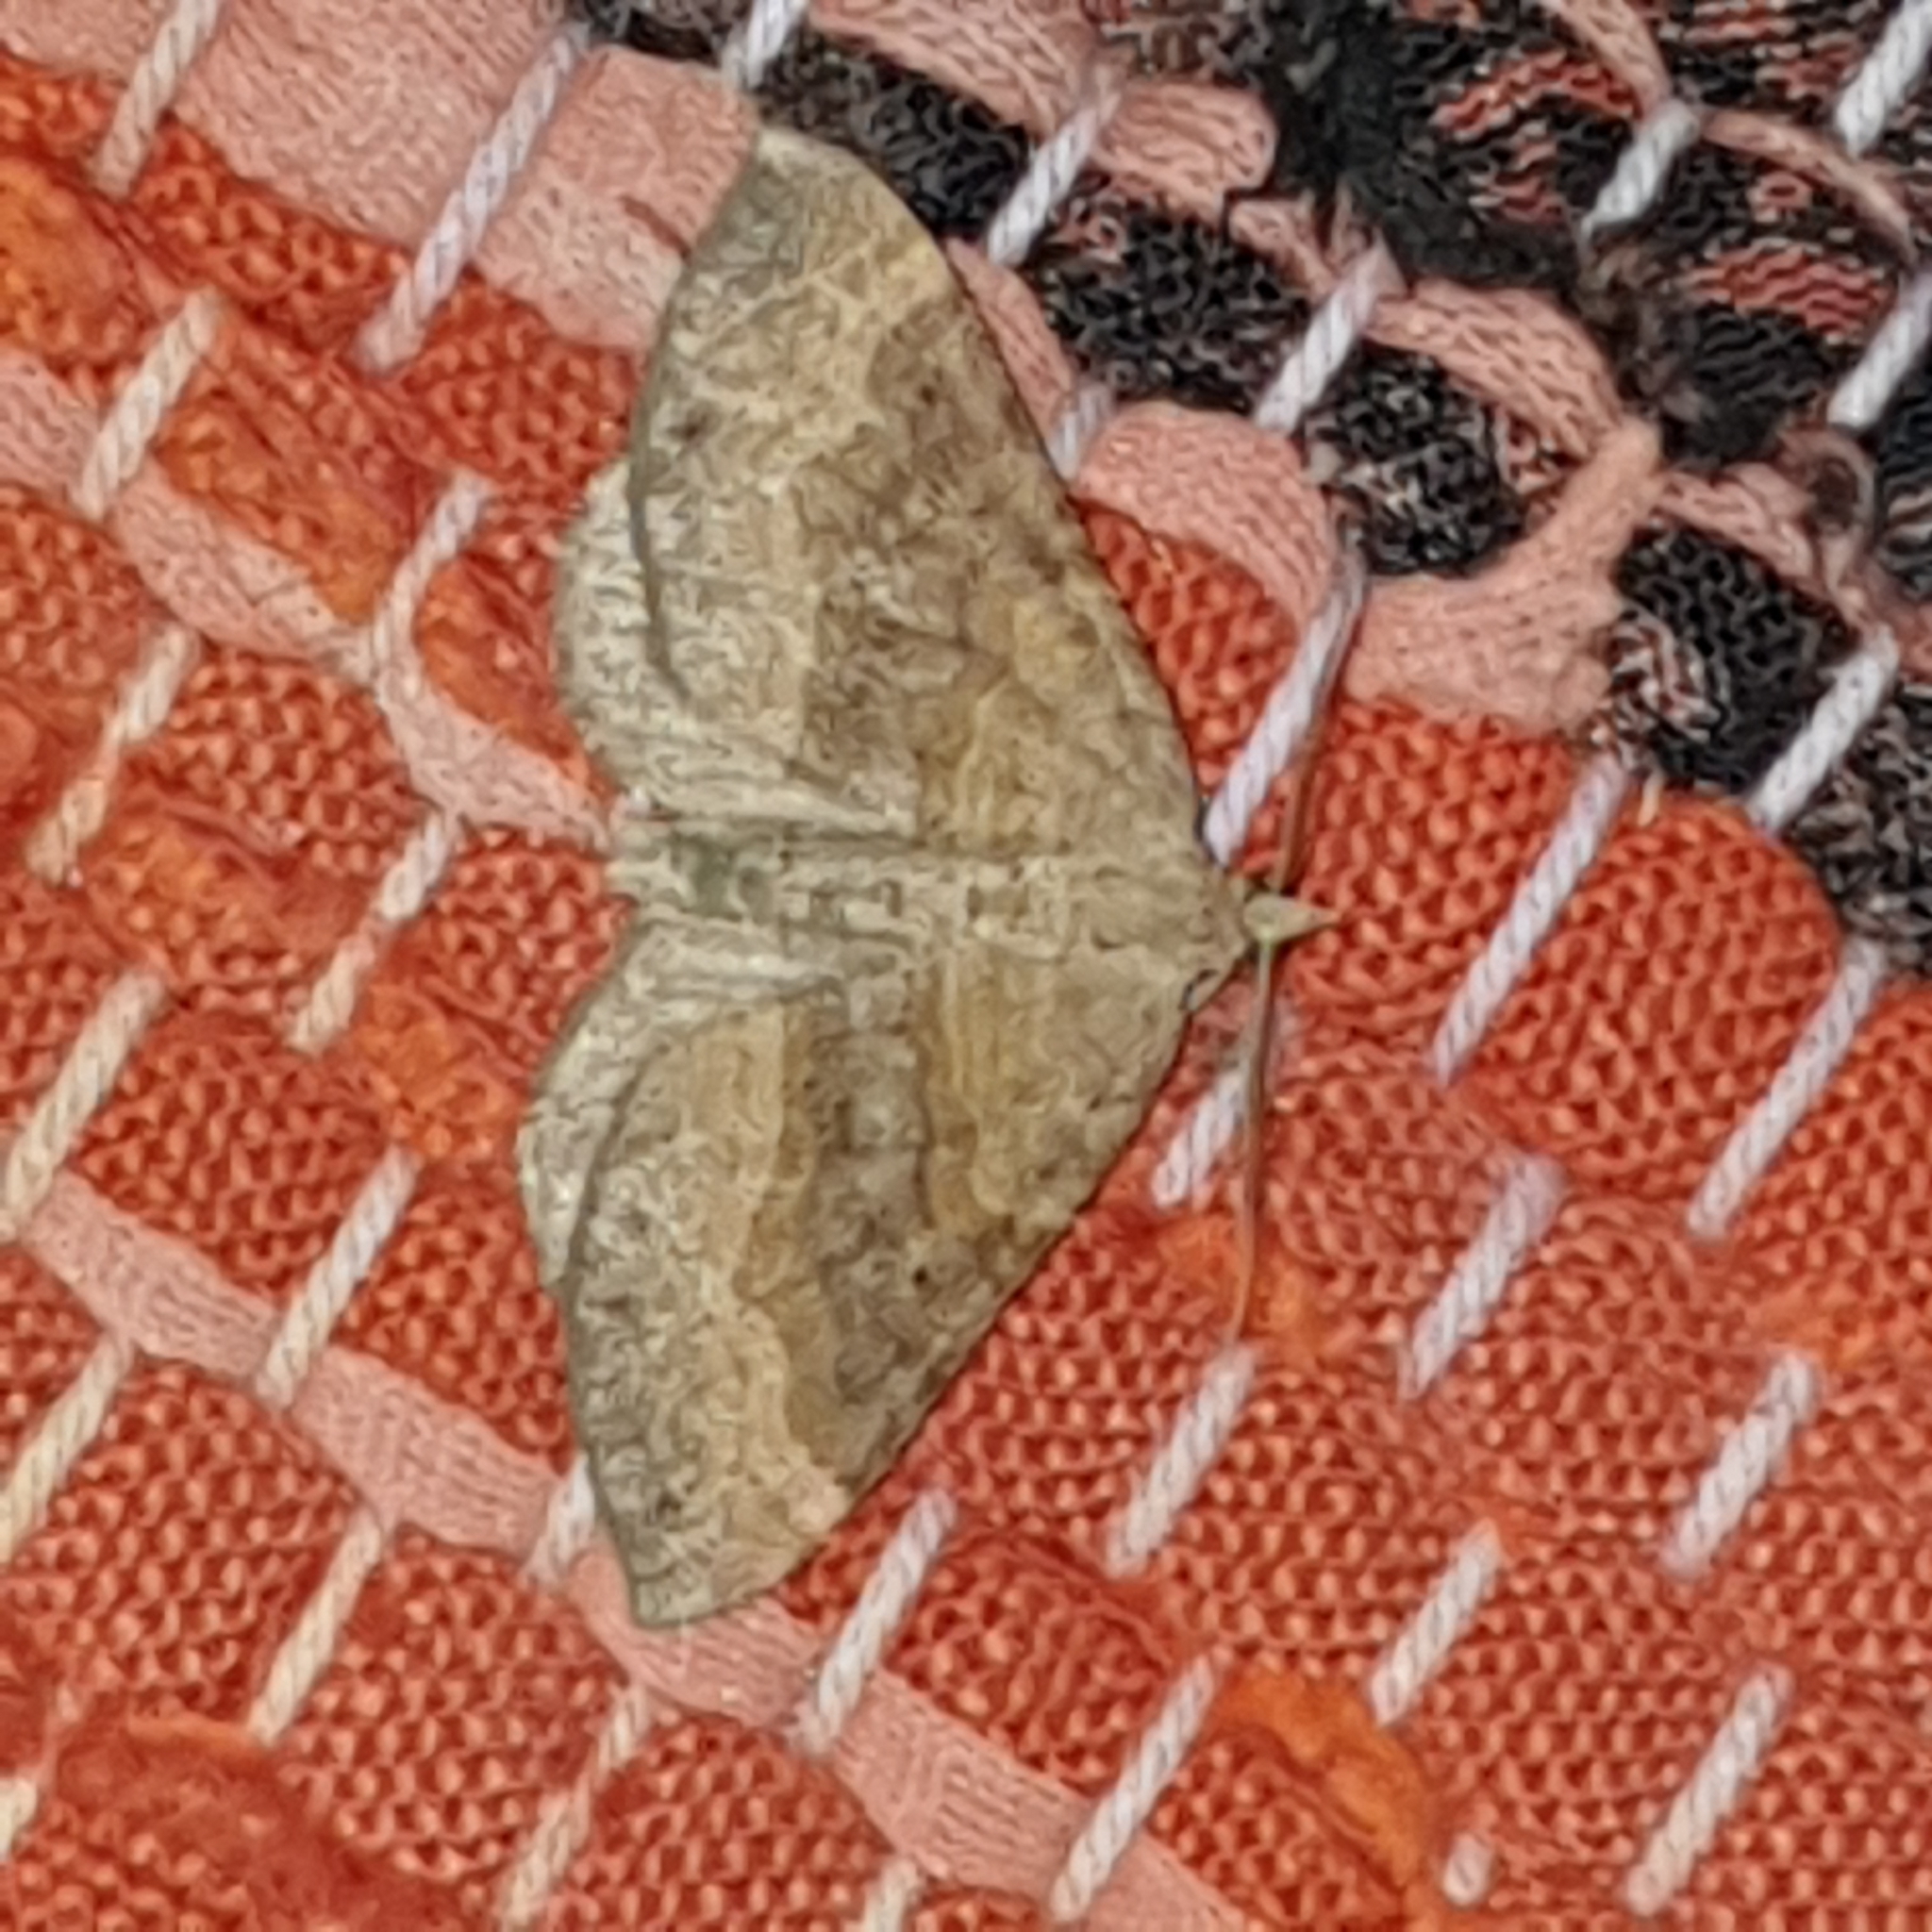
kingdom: Animalia
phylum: Arthropoda
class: Insecta
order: Lepidoptera
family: Geometridae
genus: Scotopteryx
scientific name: Scotopteryx chenopodiata
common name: Shaded broad-bar
